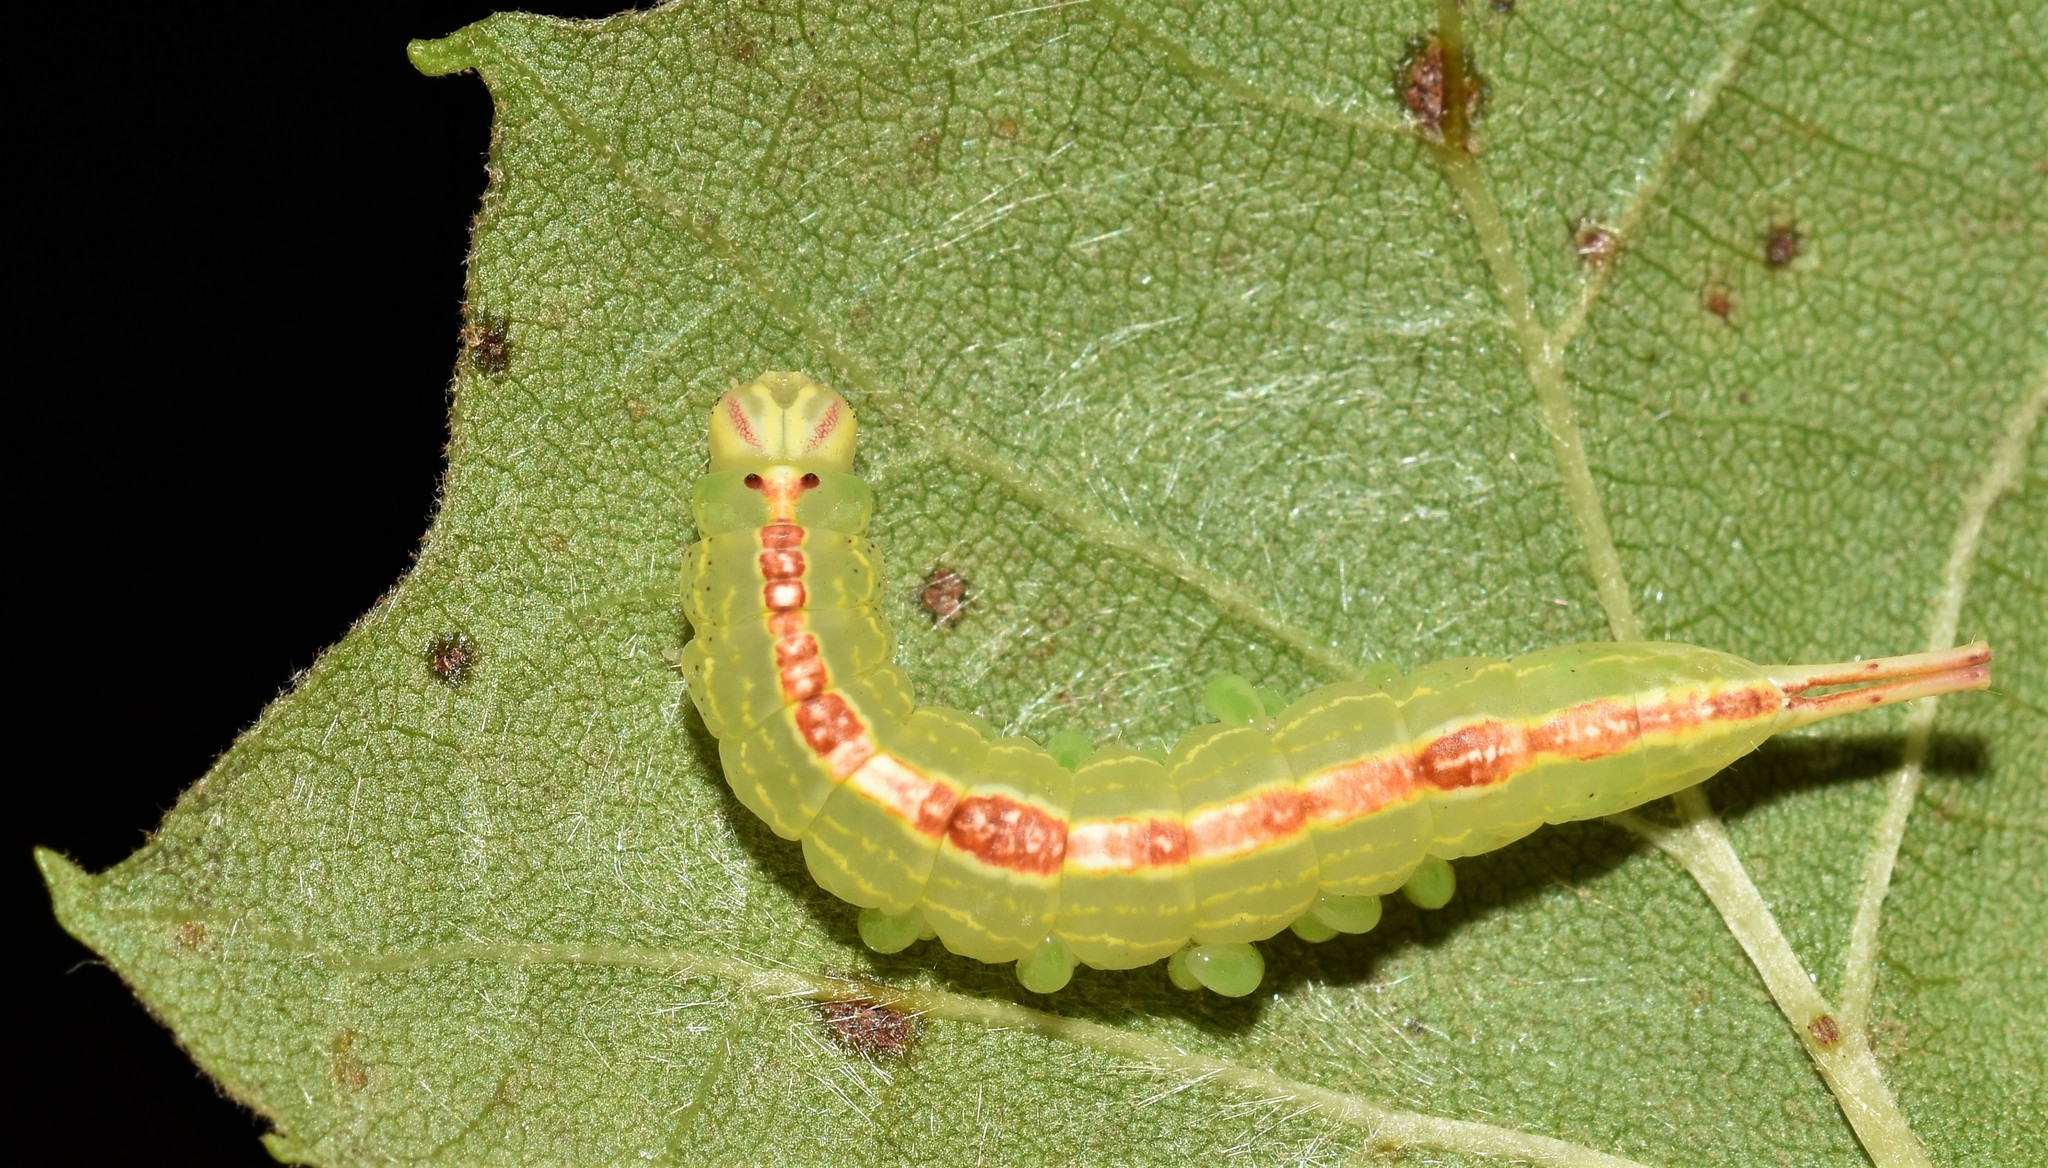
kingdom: Animalia
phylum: Arthropoda
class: Insecta
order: Lepidoptera
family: Notodontidae
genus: Misogada
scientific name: Misogada unicolor
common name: Drab prominent
